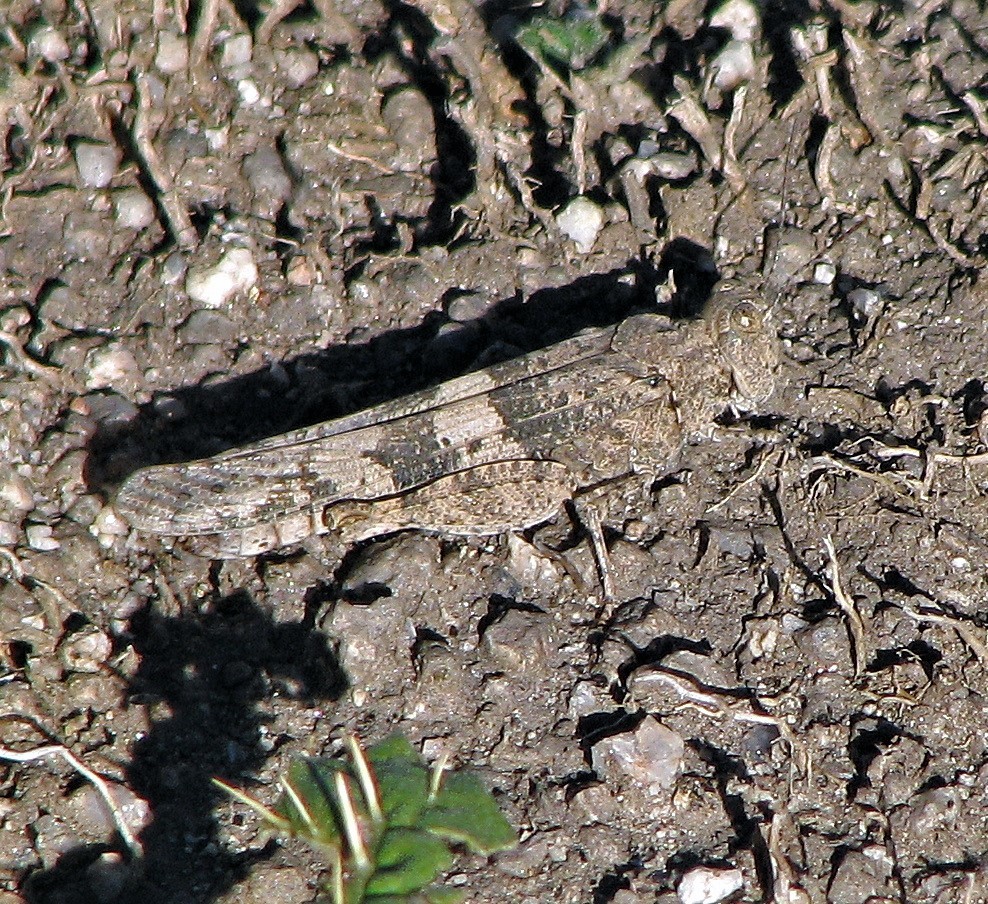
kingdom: Animalia
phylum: Arthropoda
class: Insecta
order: Orthoptera
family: Acrididae
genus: Trimerotropis
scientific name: Trimerotropis pallidipennis
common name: Pallid-winged grasshopper
